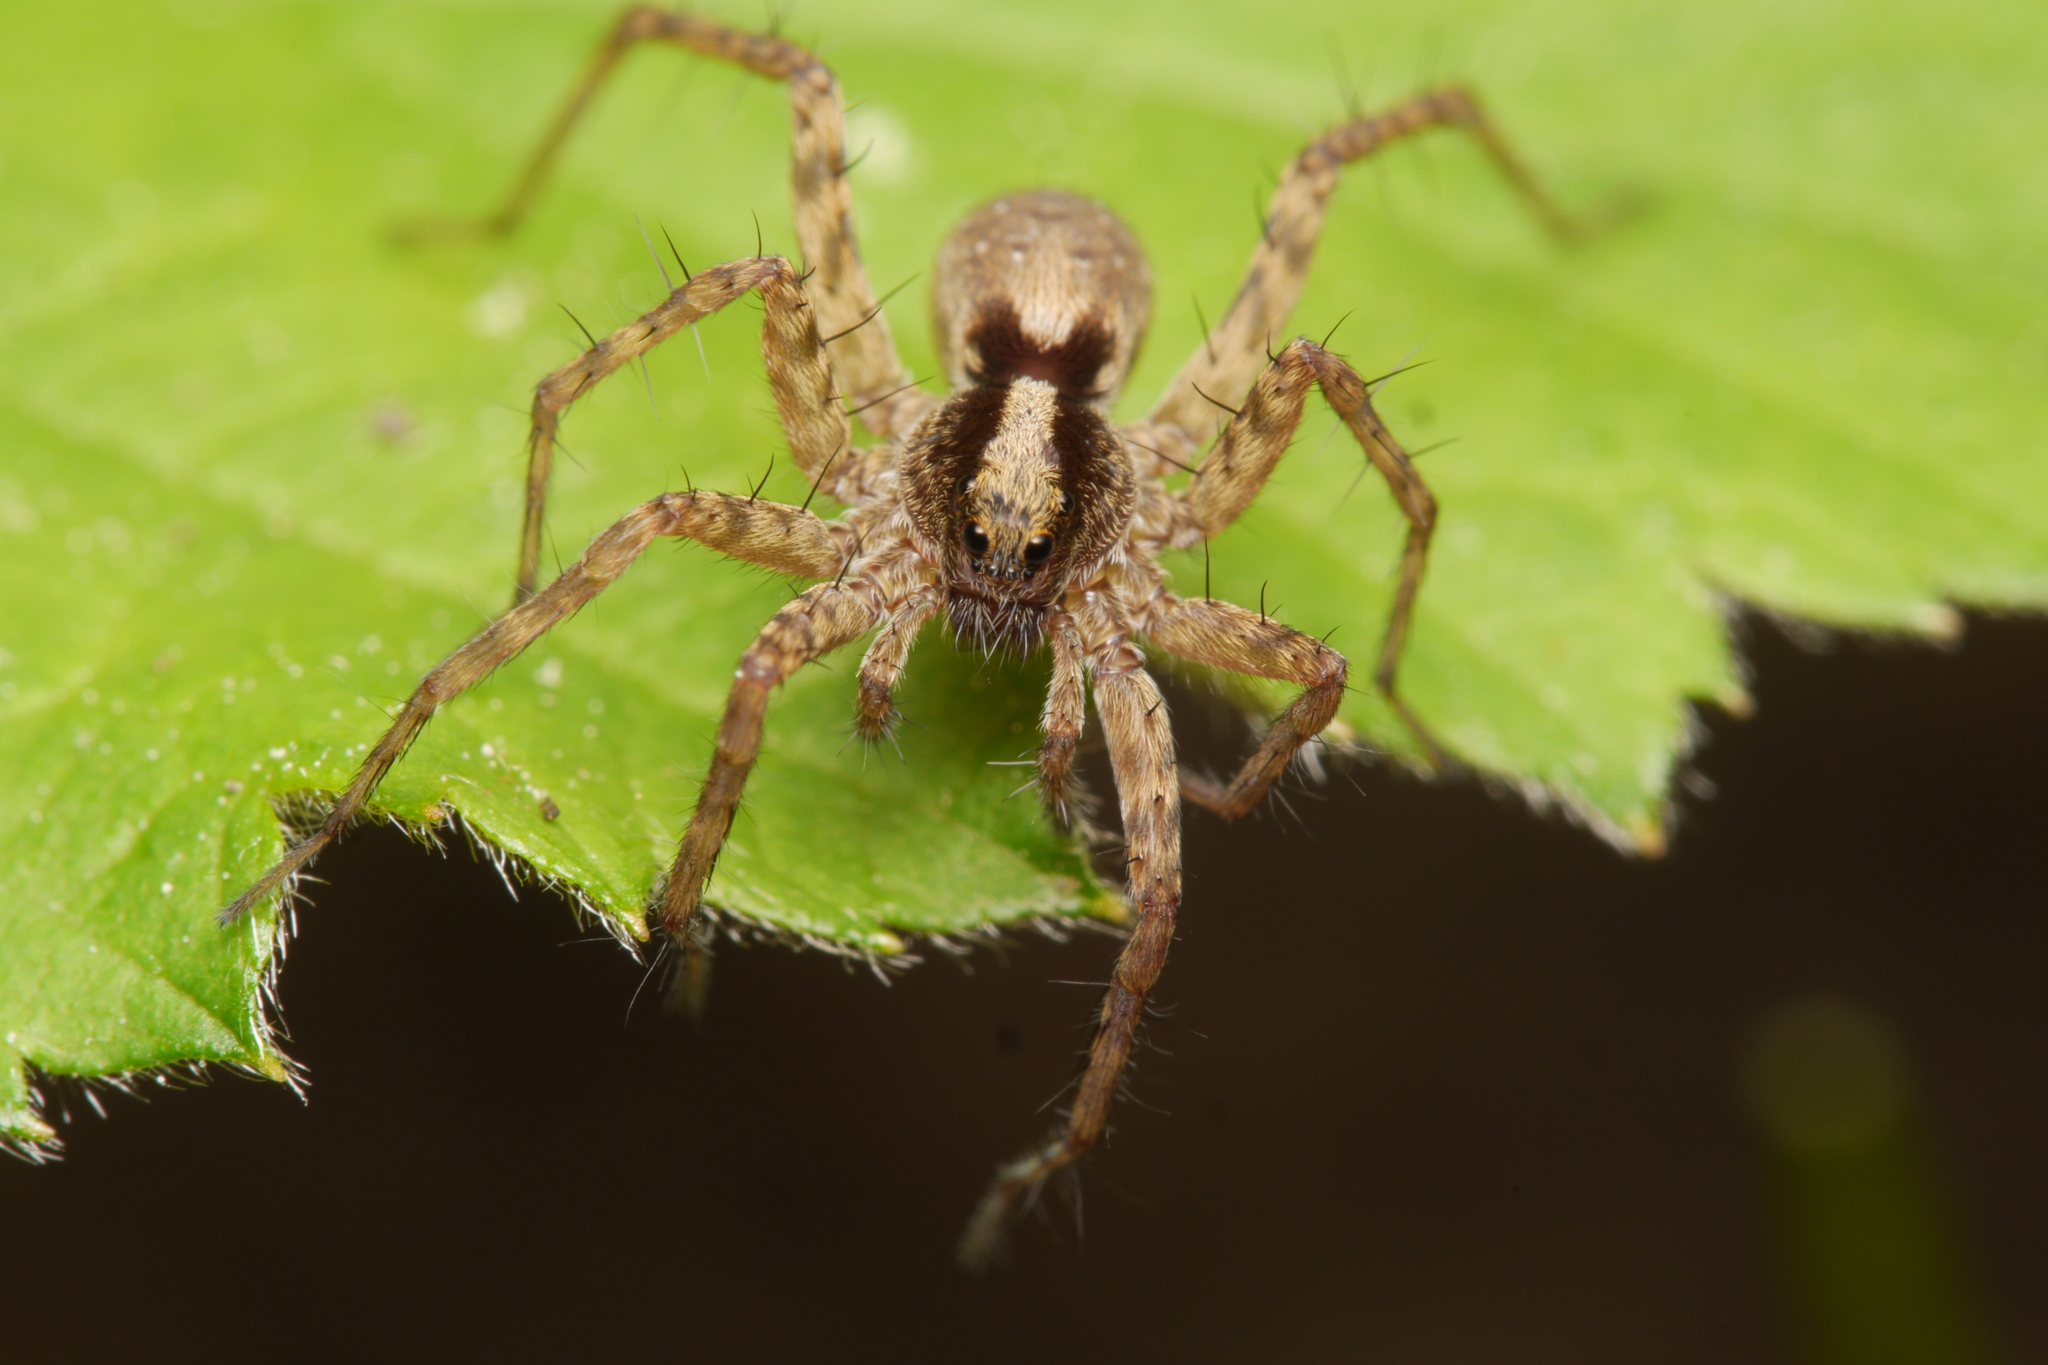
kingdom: Animalia
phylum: Arthropoda
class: Arachnida
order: Araneae
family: Lycosidae
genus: Pardosa
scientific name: Pardosa
